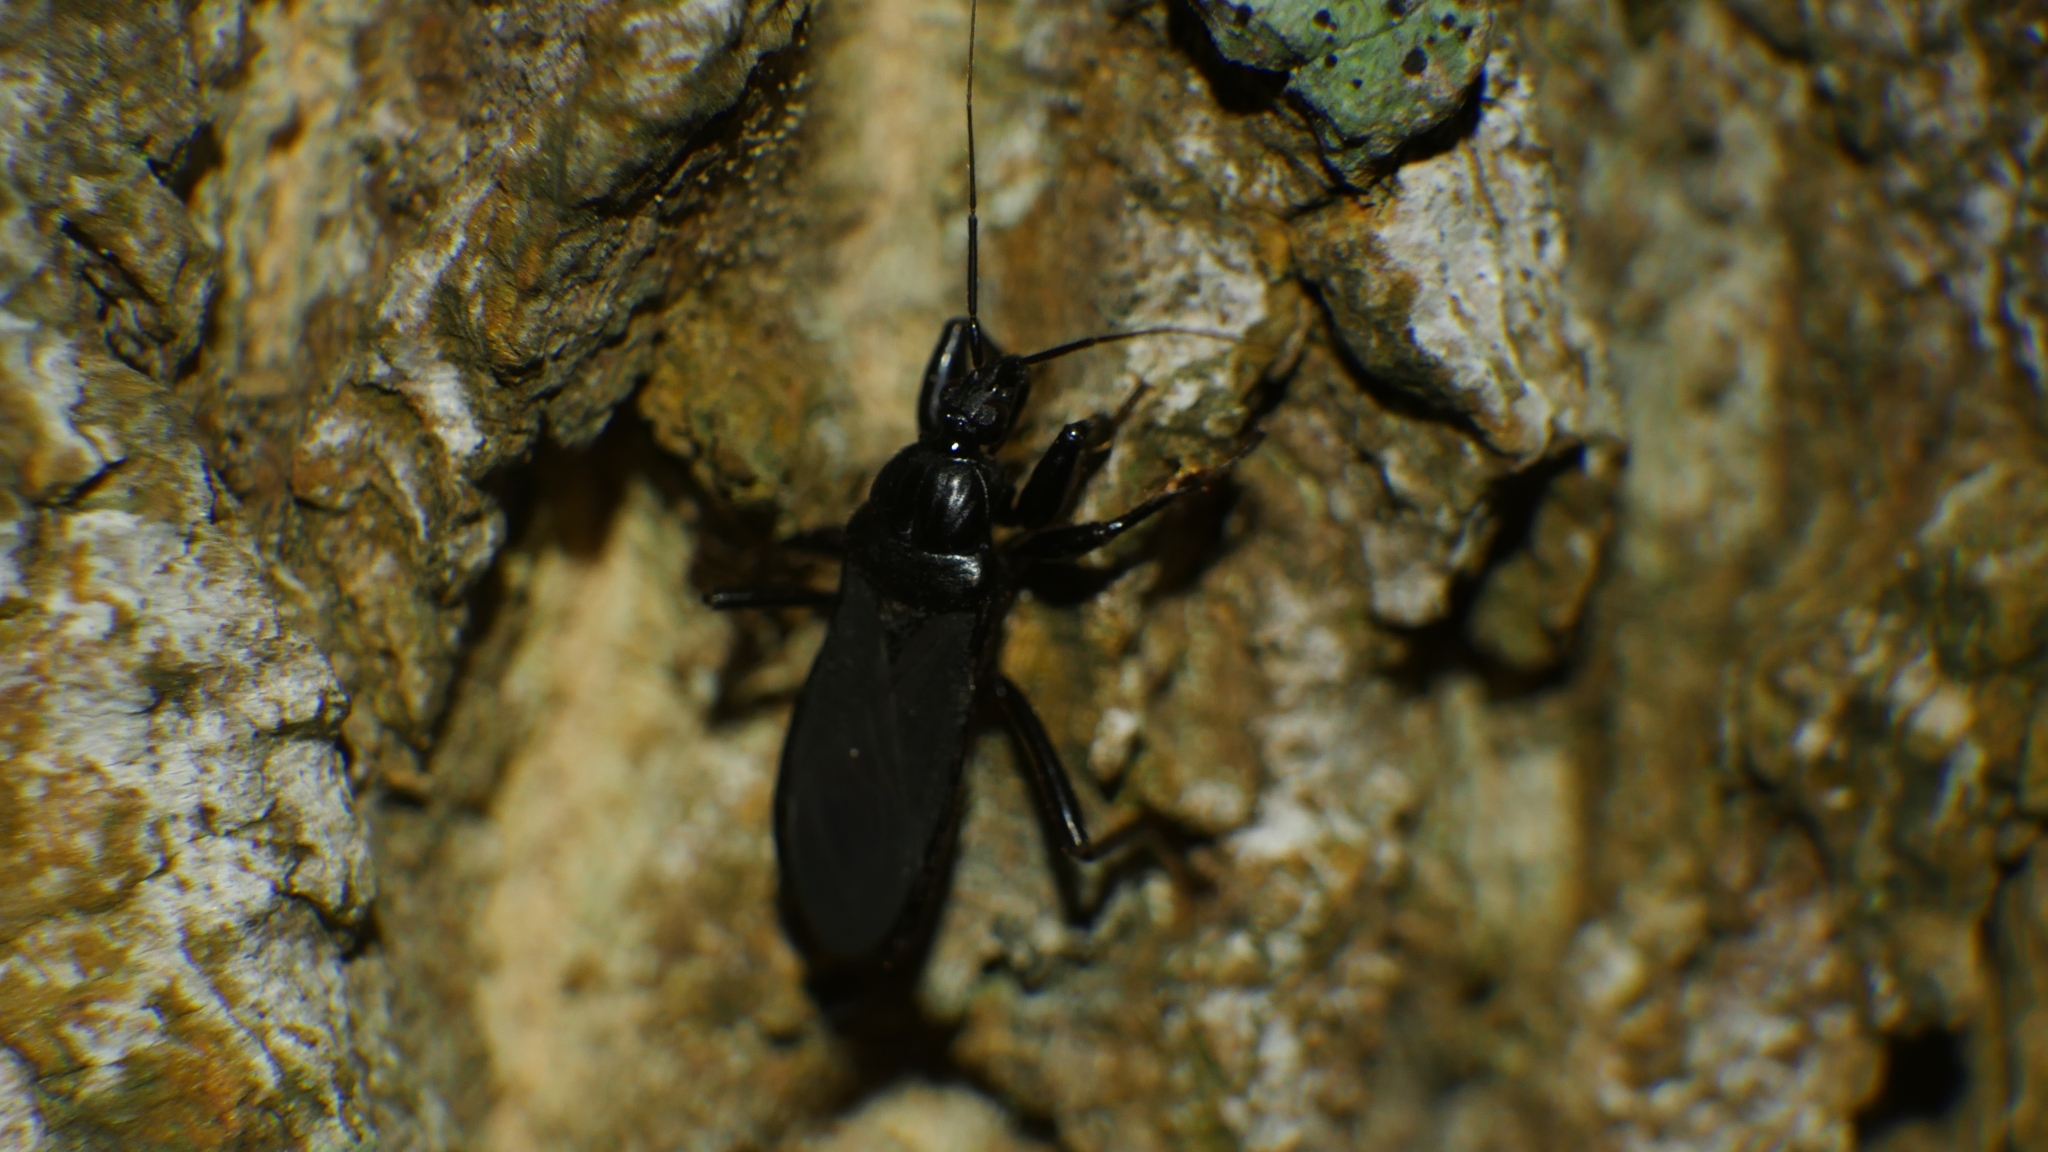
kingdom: Animalia
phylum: Arthropoda
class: Insecta
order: Hemiptera
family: Reduviidae
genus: Melanolestes
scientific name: Melanolestes picipes
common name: Assassin bug
